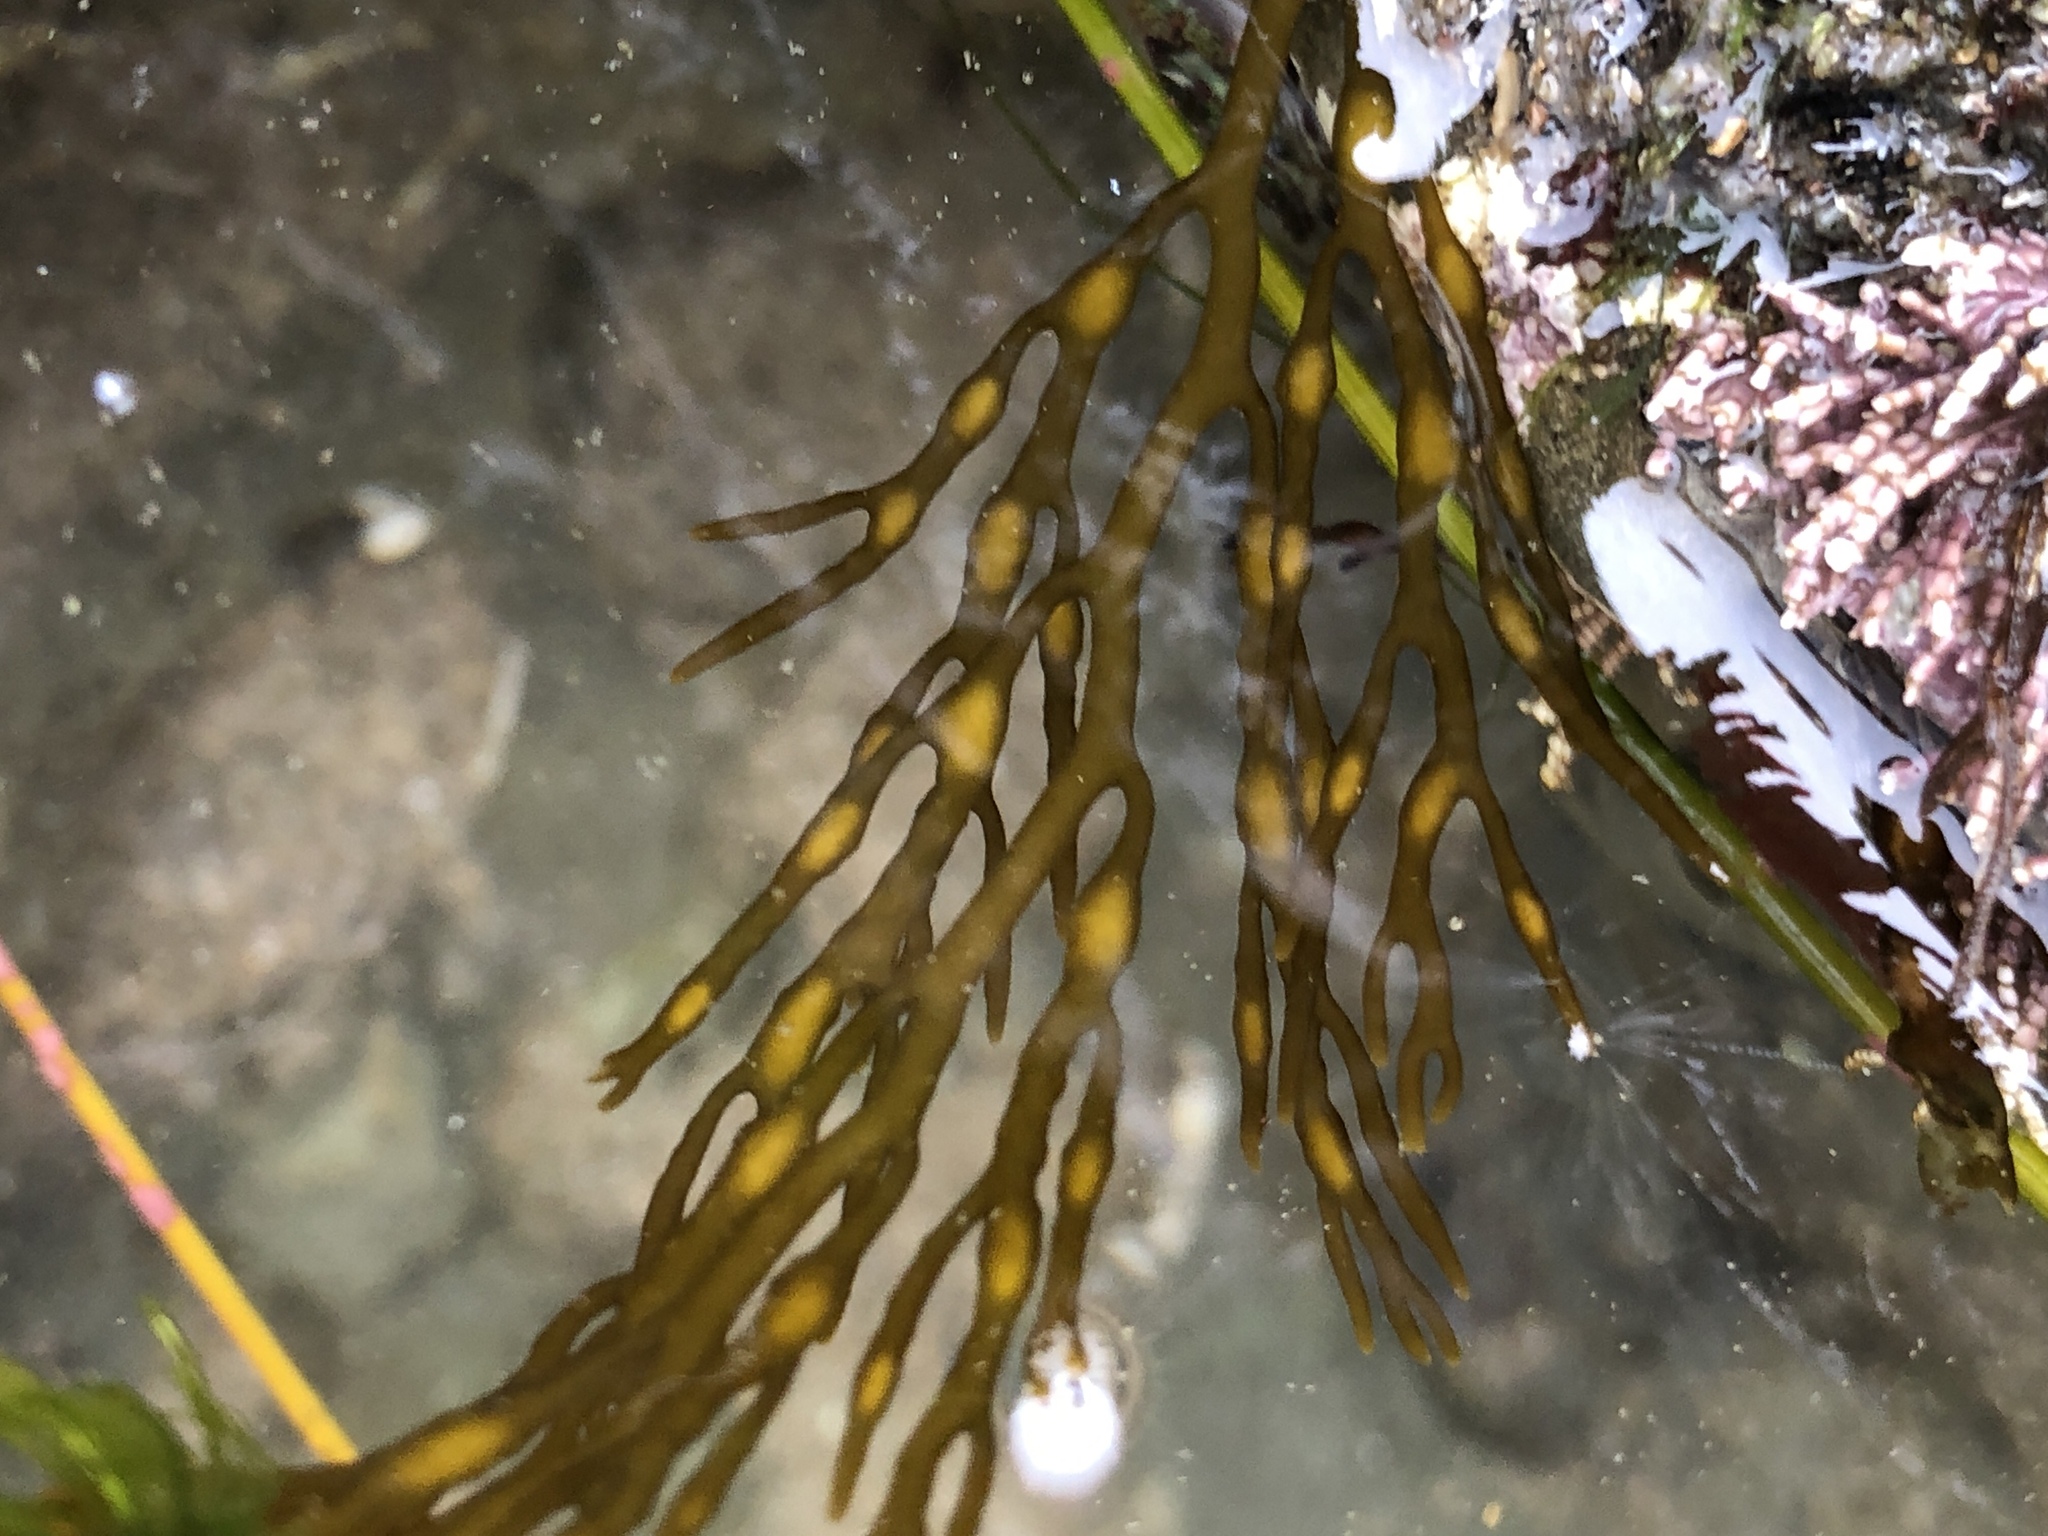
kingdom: Chromista
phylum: Ochrophyta
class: Phaeophyceae
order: Fucales
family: Sargassaceae
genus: Stephanocystis
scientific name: Stephanocystis
